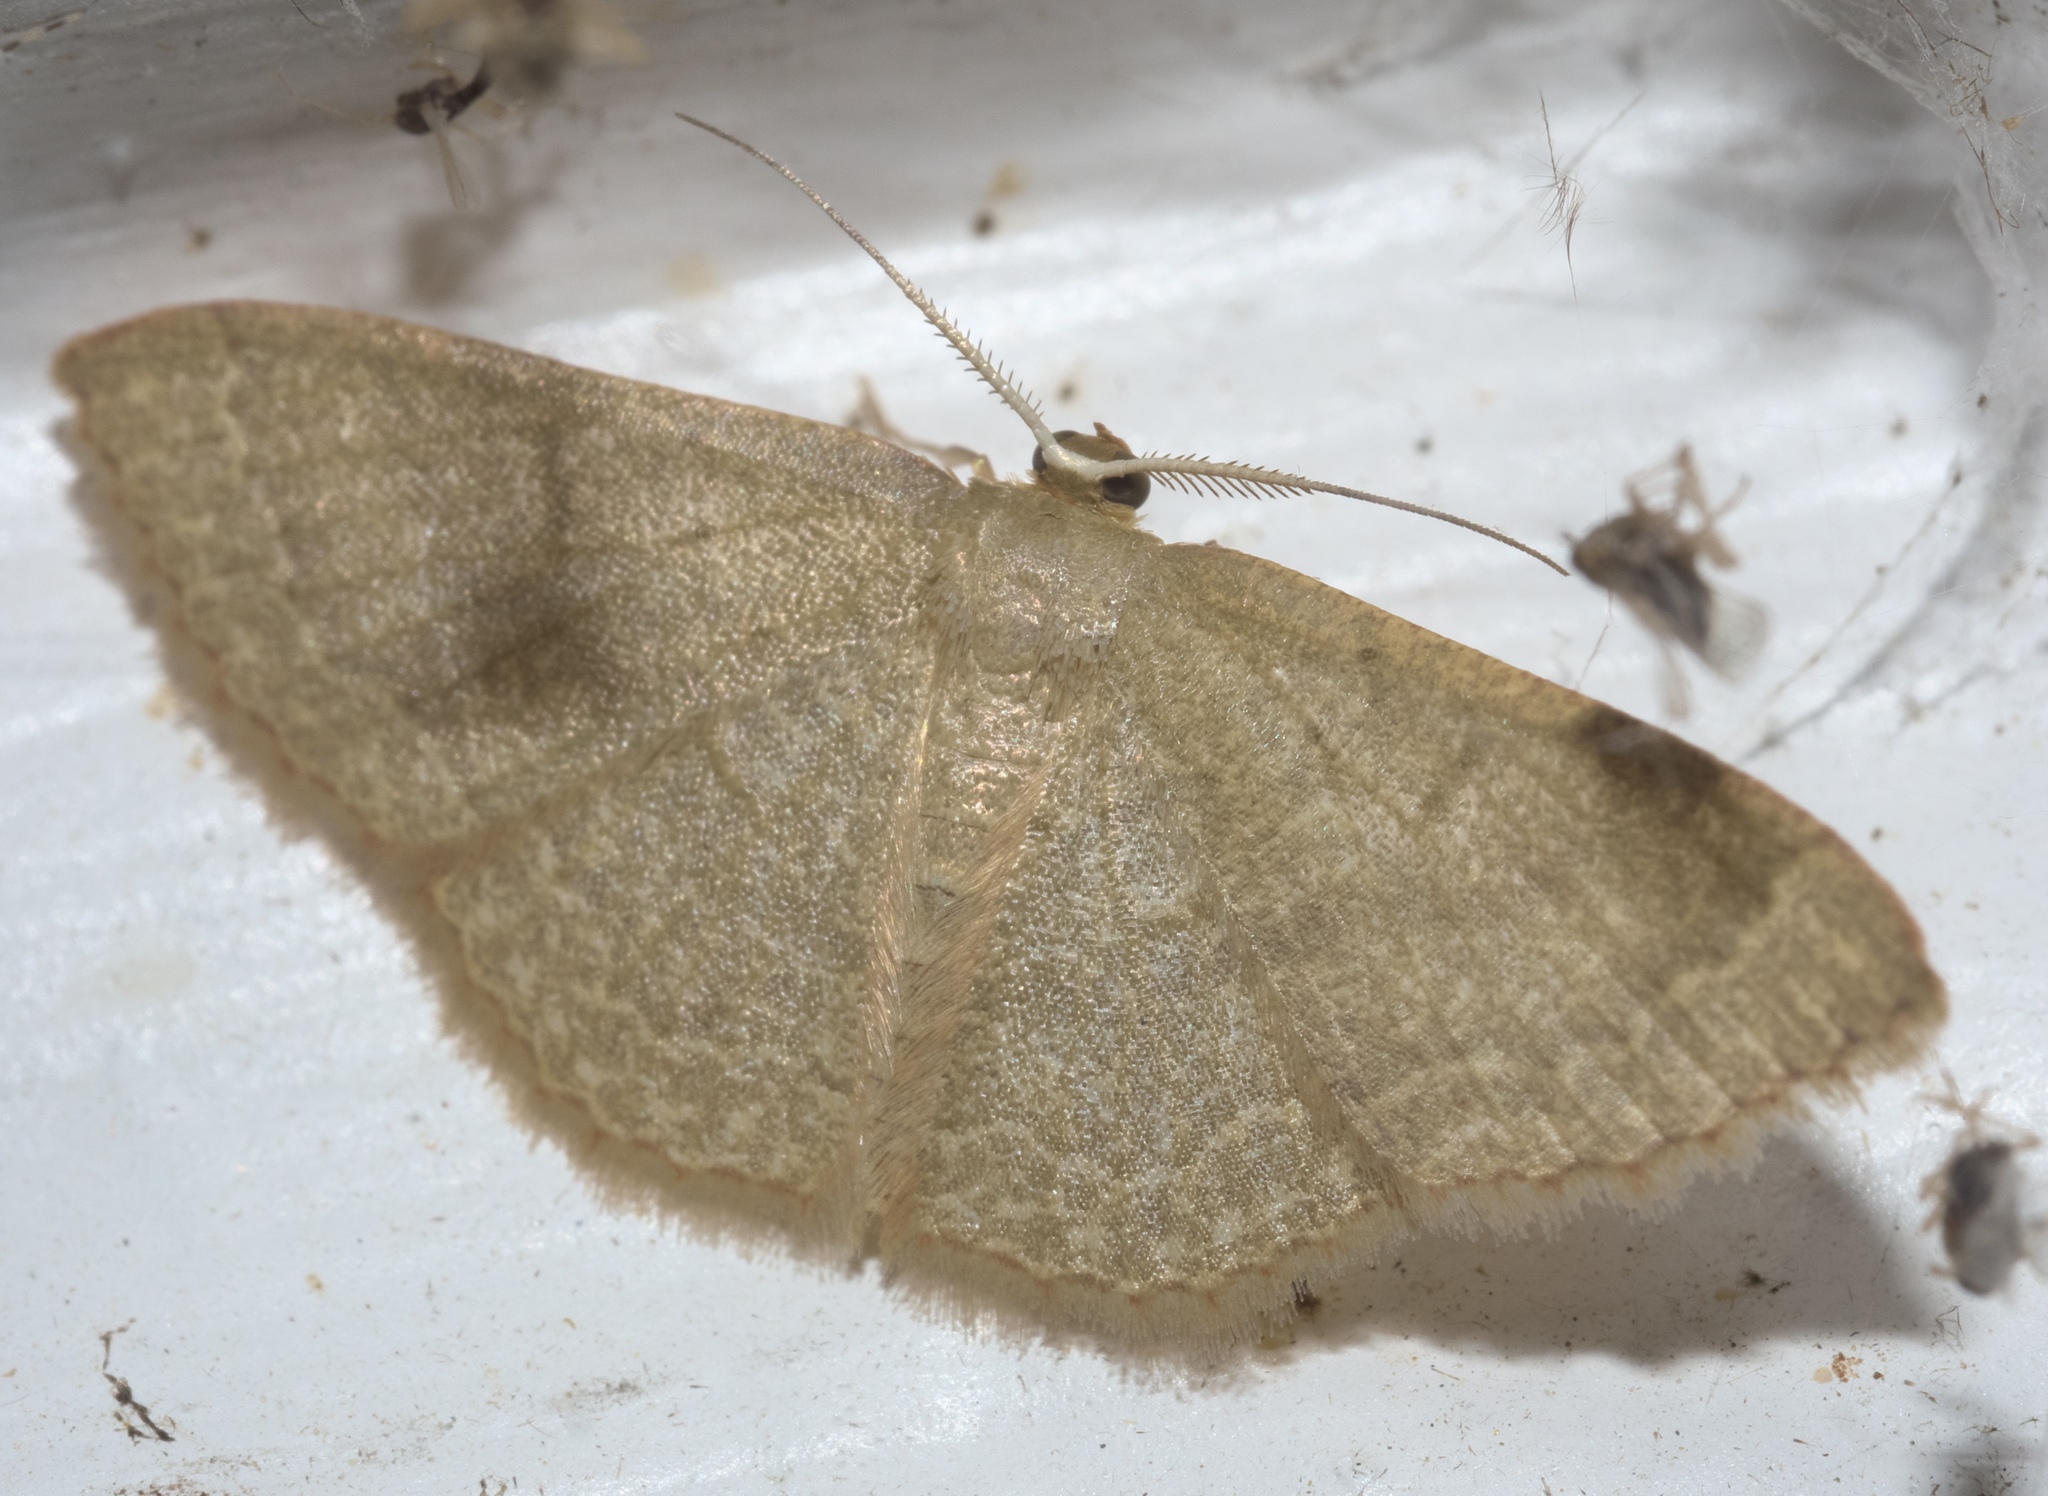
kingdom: Animalia
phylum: Arthropoda
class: Insecta
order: Lepidoptera
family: Geometridae
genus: Pleuroprucha
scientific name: Pleuroprucha insulsaria
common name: Common tan wave
